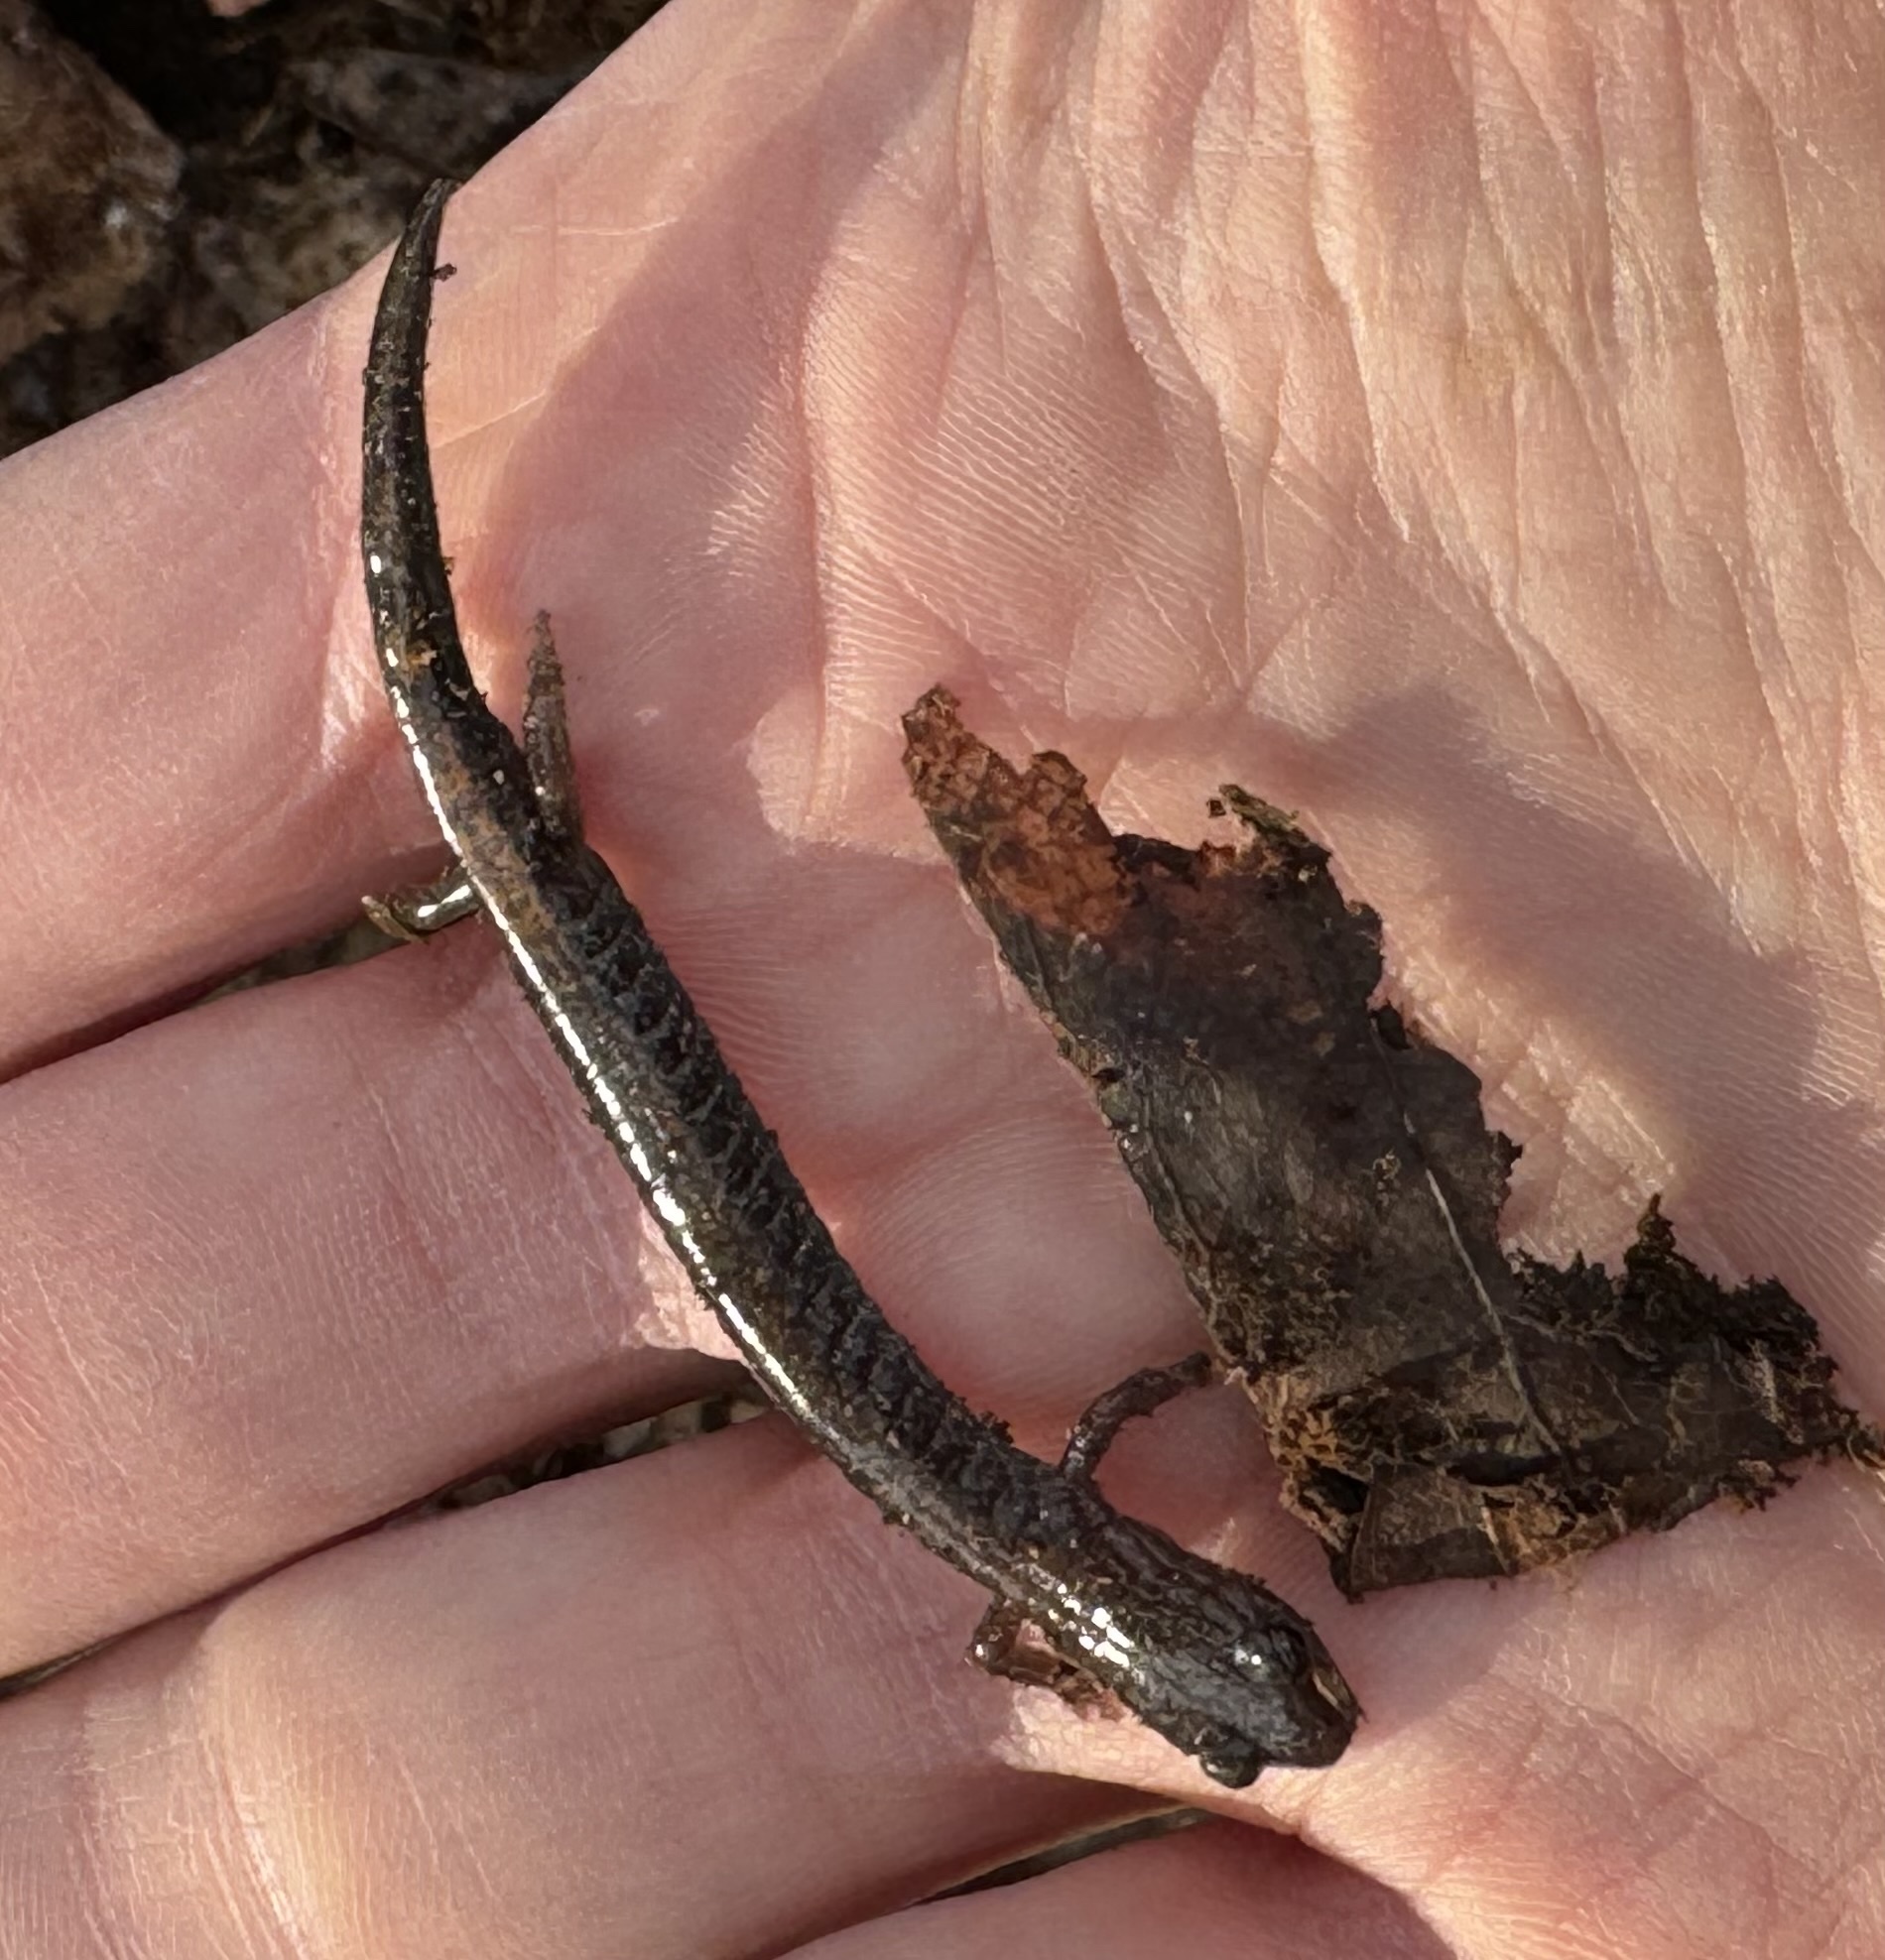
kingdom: Animalia
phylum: Chordata
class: Amphibia
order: Caudata
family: Plethodontidae
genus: Plethodon
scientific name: Plethodon cinereus
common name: Redback salamander
